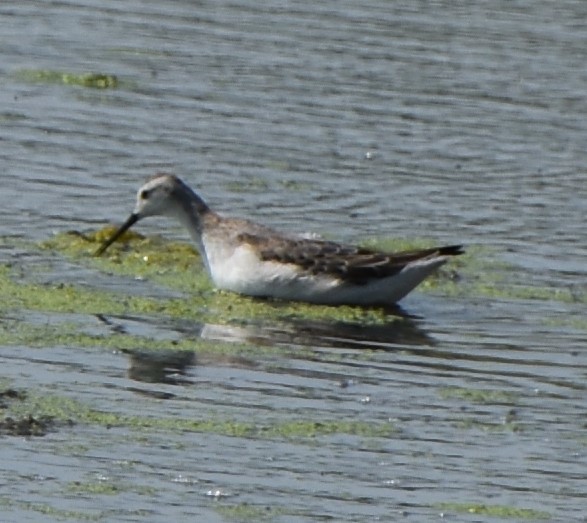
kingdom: Animalia
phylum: Chordata
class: Aves
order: Charadriiformes
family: Scolopacidae
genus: Phalaropus
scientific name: Phalaropus tricolor
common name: Wilson's phalarope
